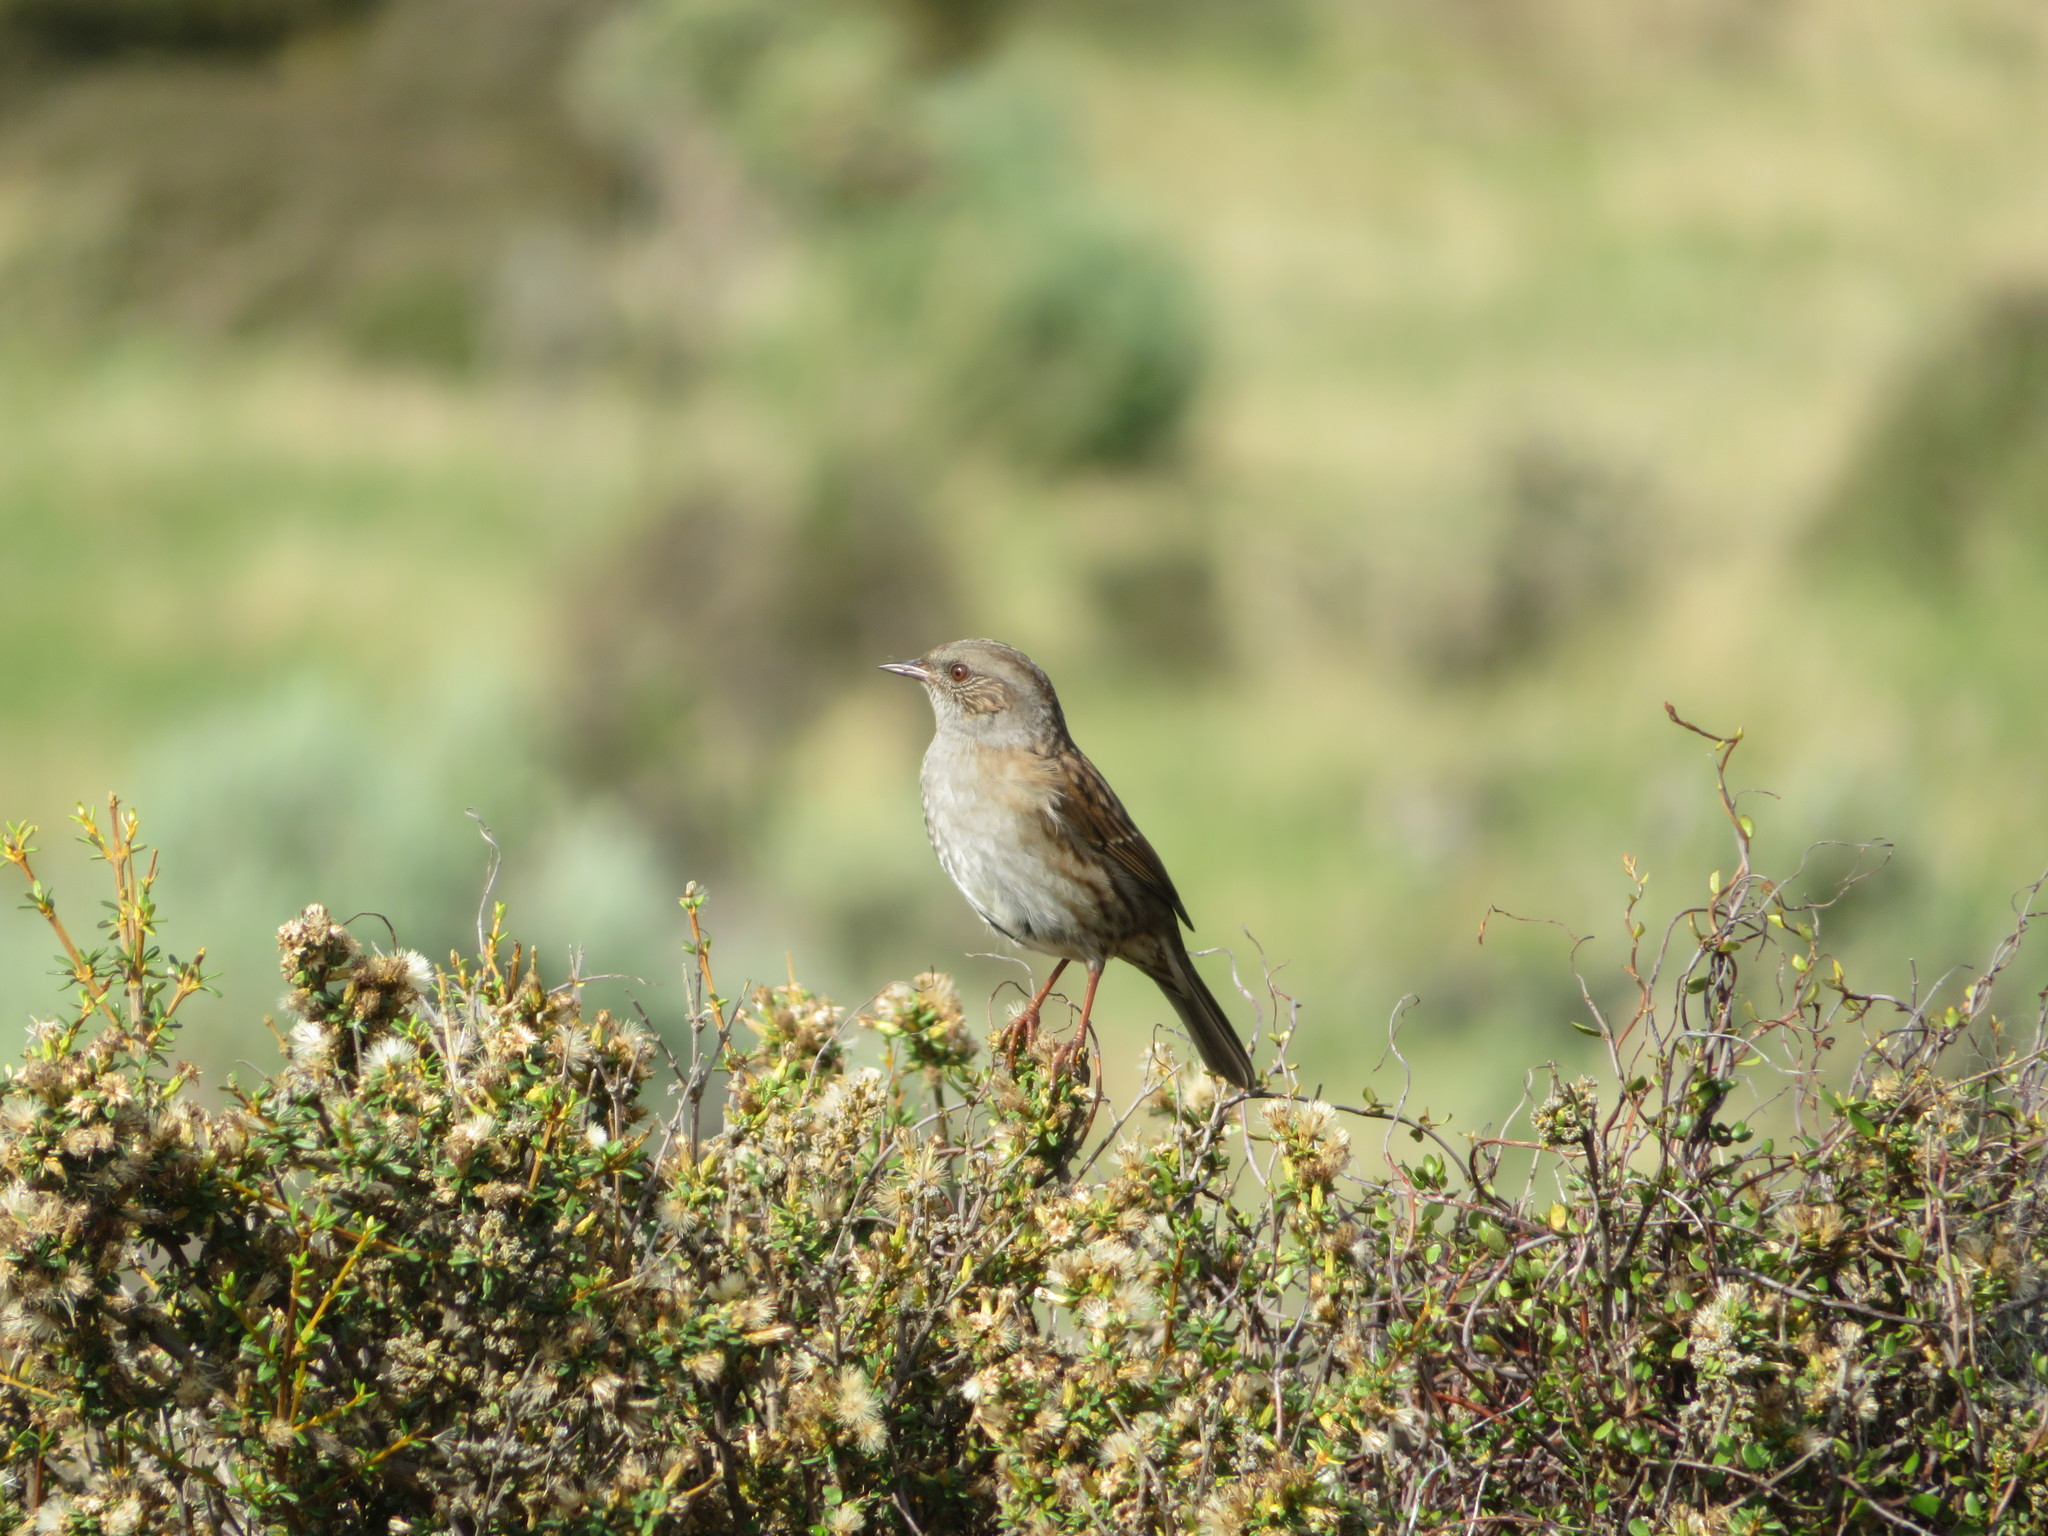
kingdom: Animalia
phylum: Chordata
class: Aves
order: Passeriformes
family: Prunellidae
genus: Prunella
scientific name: Prunella modularis
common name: Dunnock
